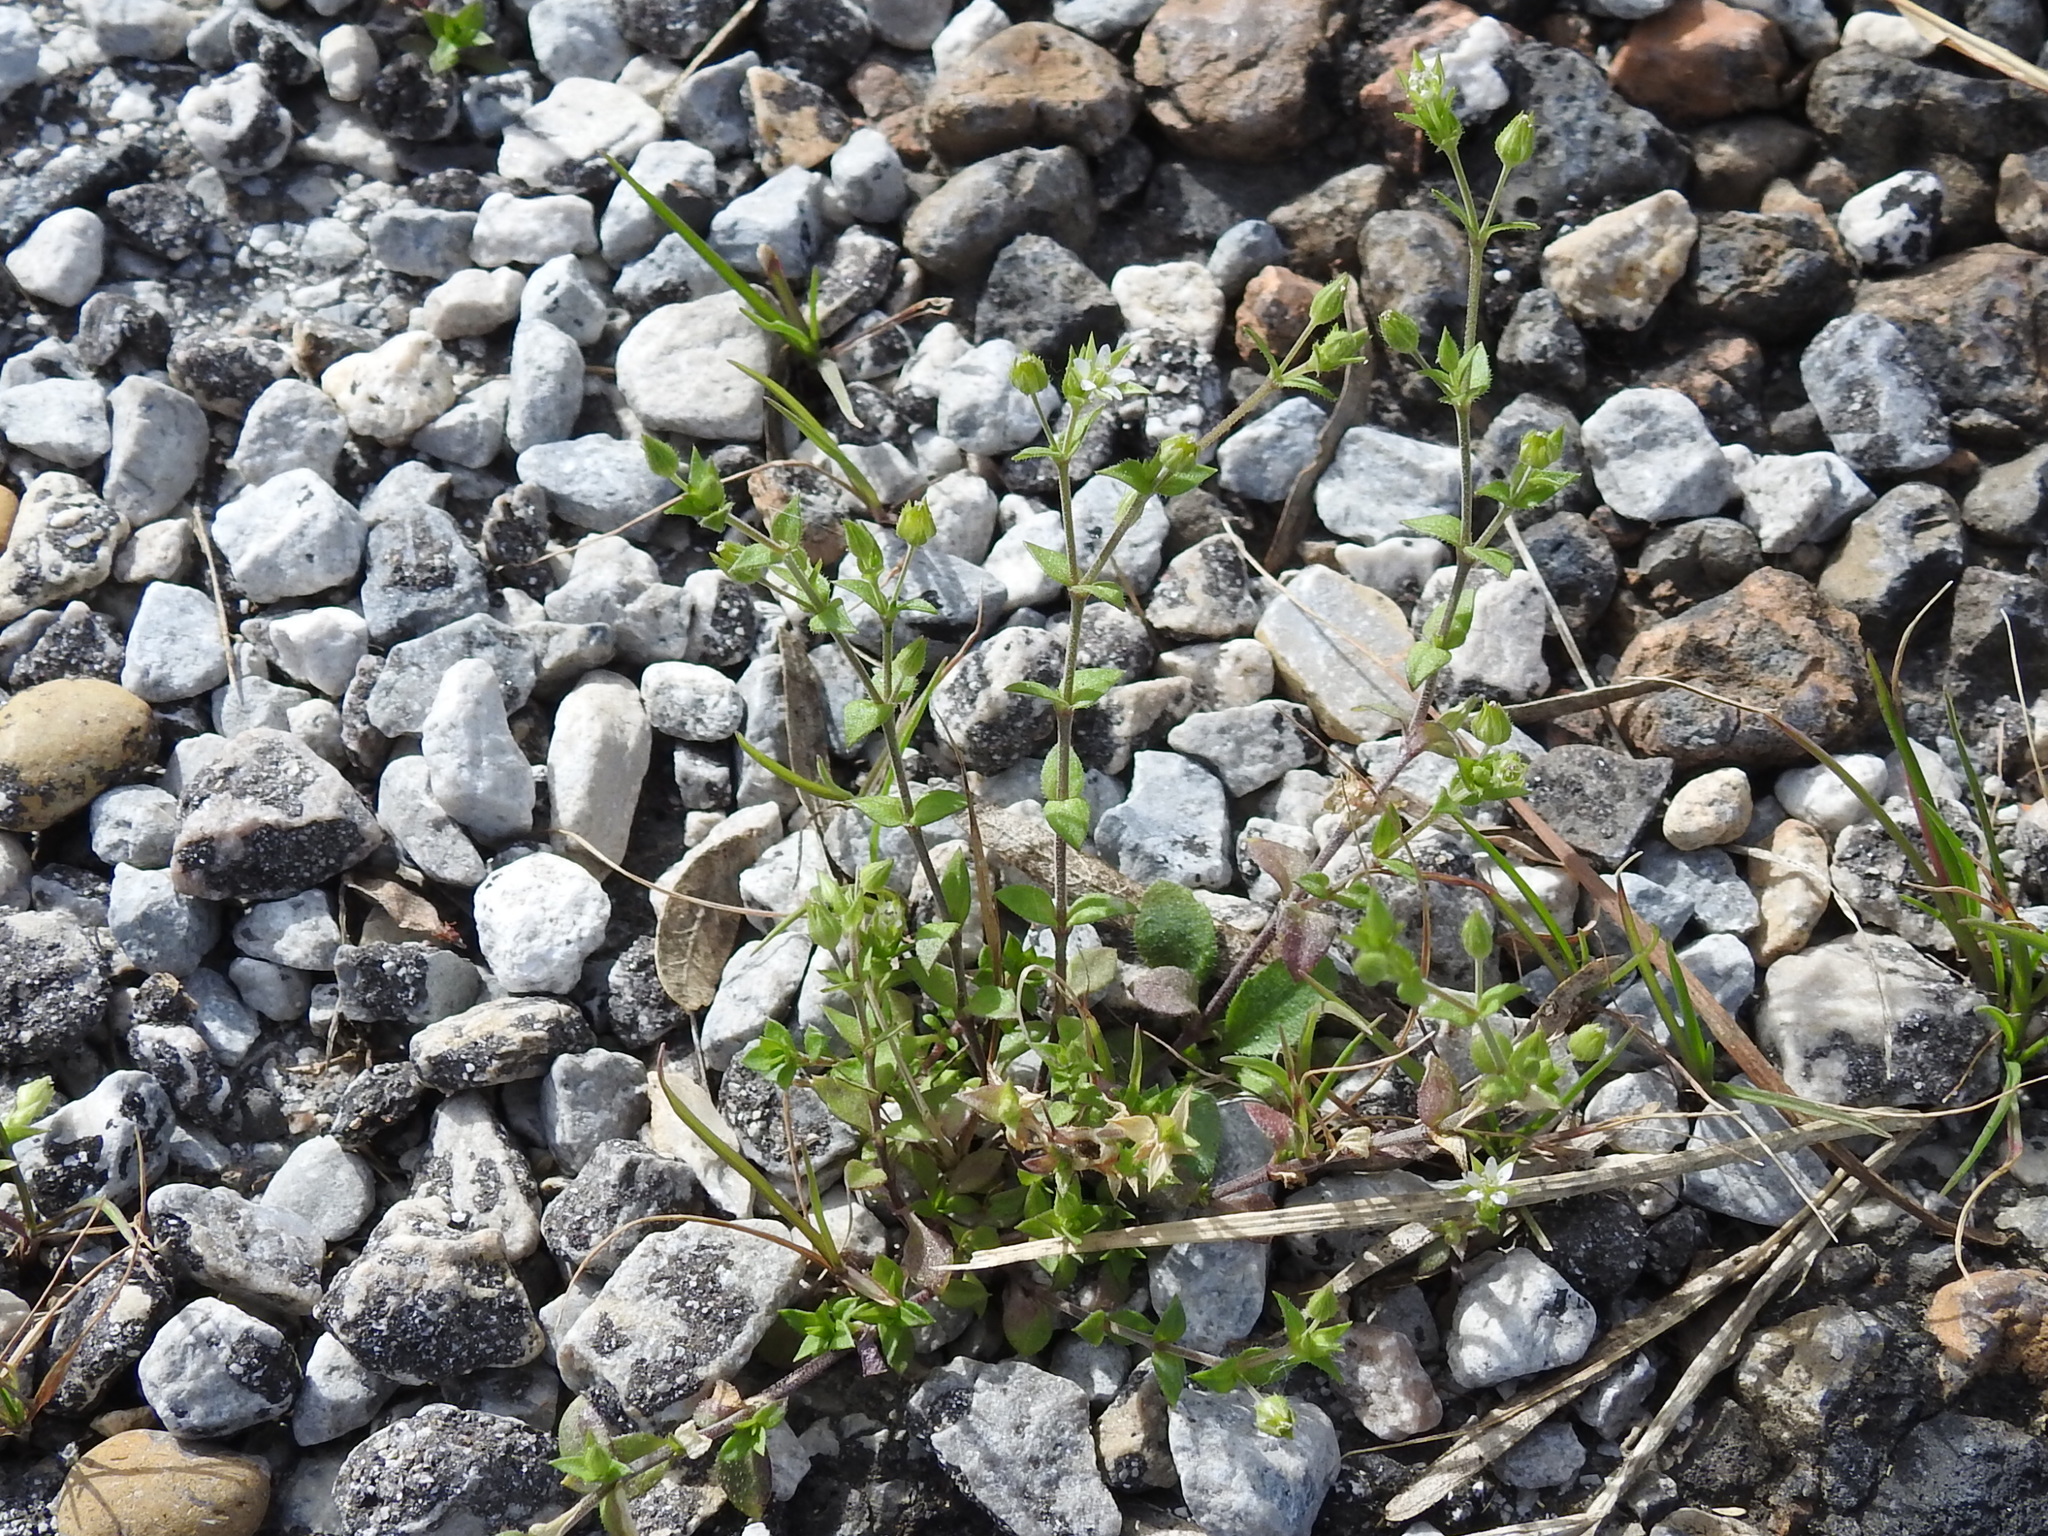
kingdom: Plantae
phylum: Tracheophyta
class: Magnoliopsida
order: Caryophyllales
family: Caryophyllaceae
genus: Arenaria
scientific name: Arenaria serpyllifolia
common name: Thyme-leaved sandwort
